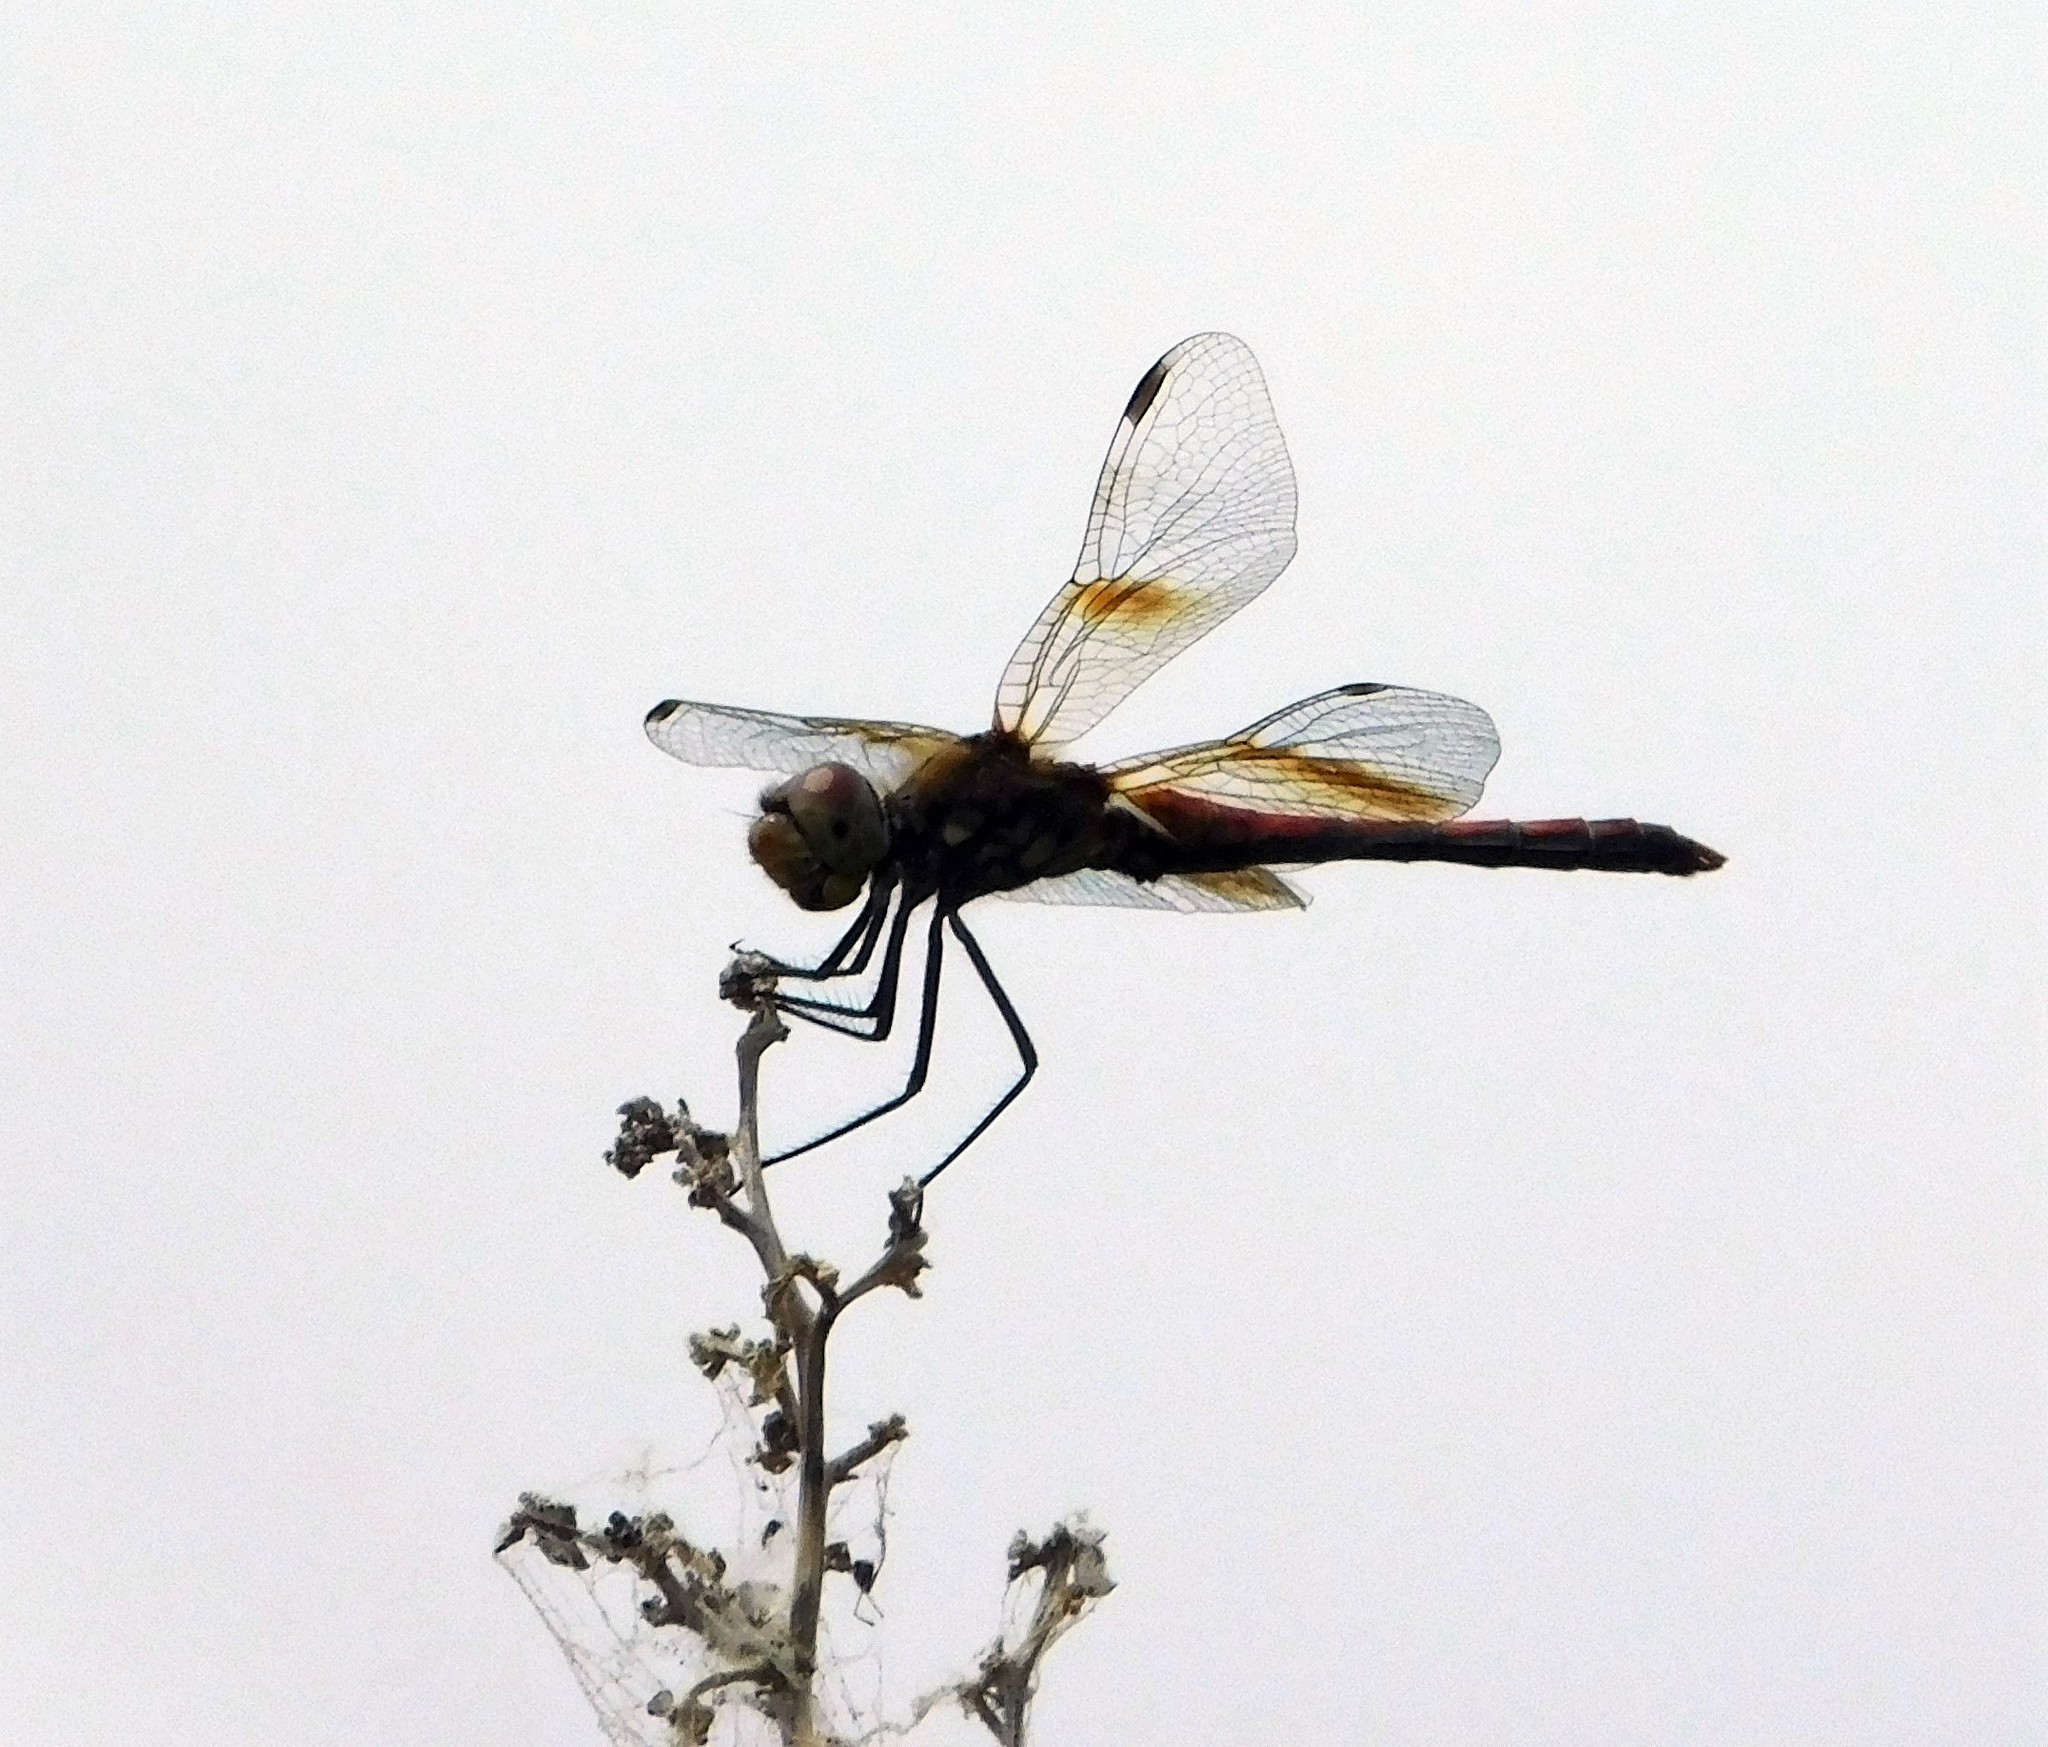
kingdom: Animalia
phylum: Arthropoda
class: Insecta
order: Odonata
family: Libellulidae
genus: Sympetrum
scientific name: Sympetrum semicinctum
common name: Band-winged meadowhawk
